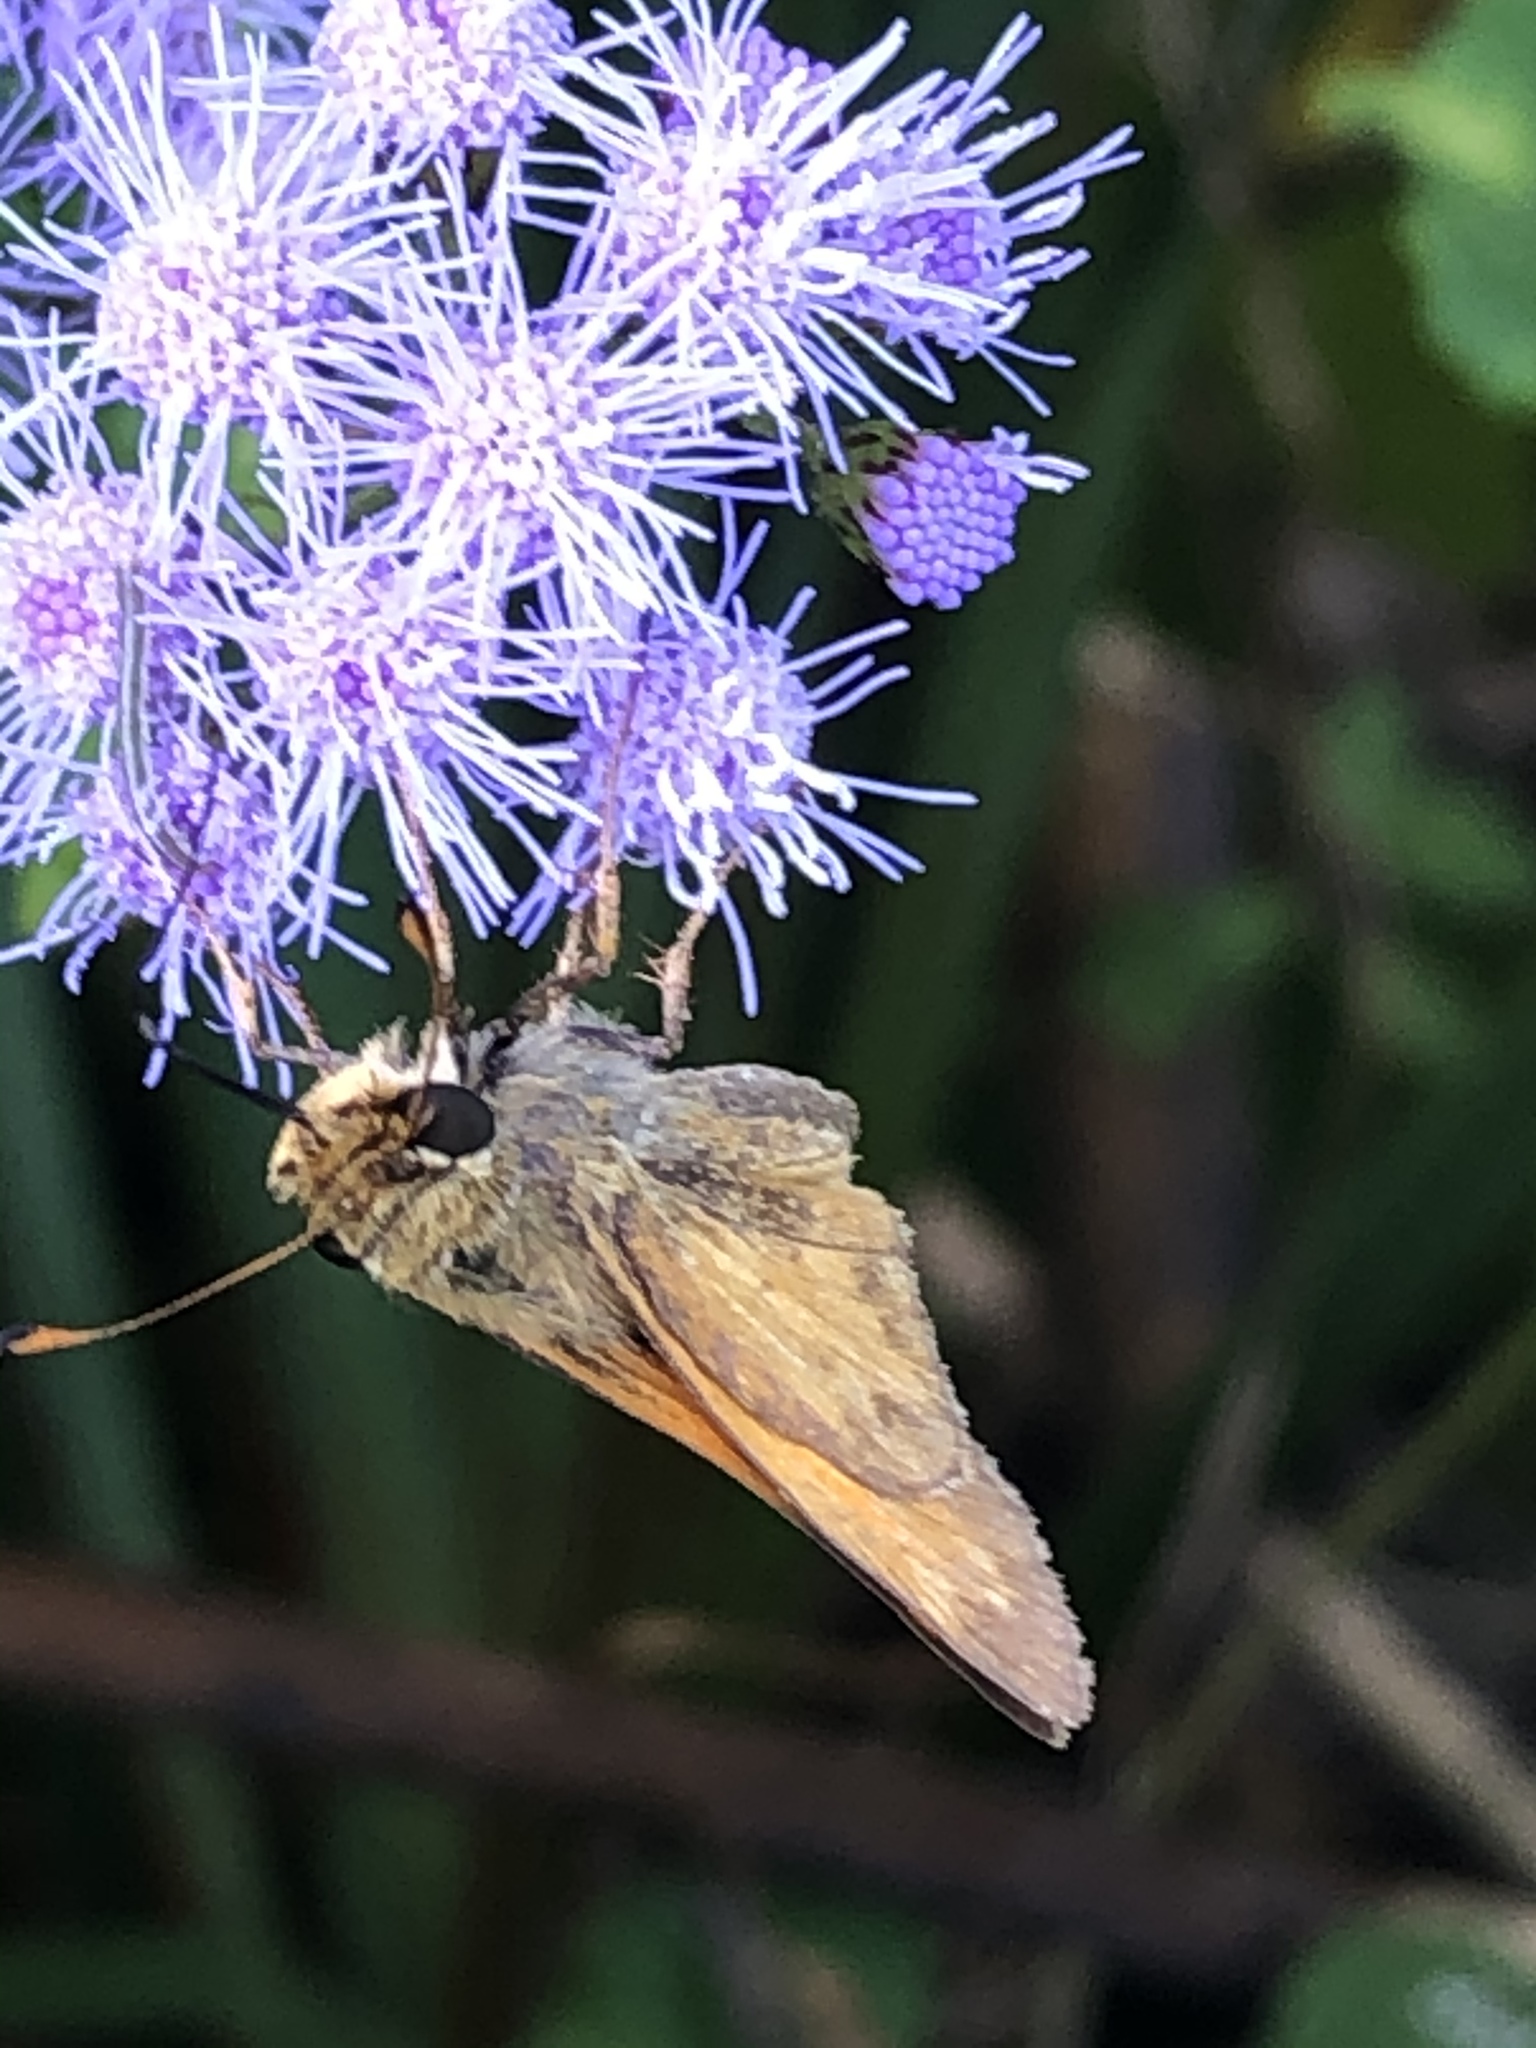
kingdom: Animalia
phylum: Arthropoda
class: Insecta
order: Lepidoptera
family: Hesperiidae
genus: Atalopedes
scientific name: Atalopedes
